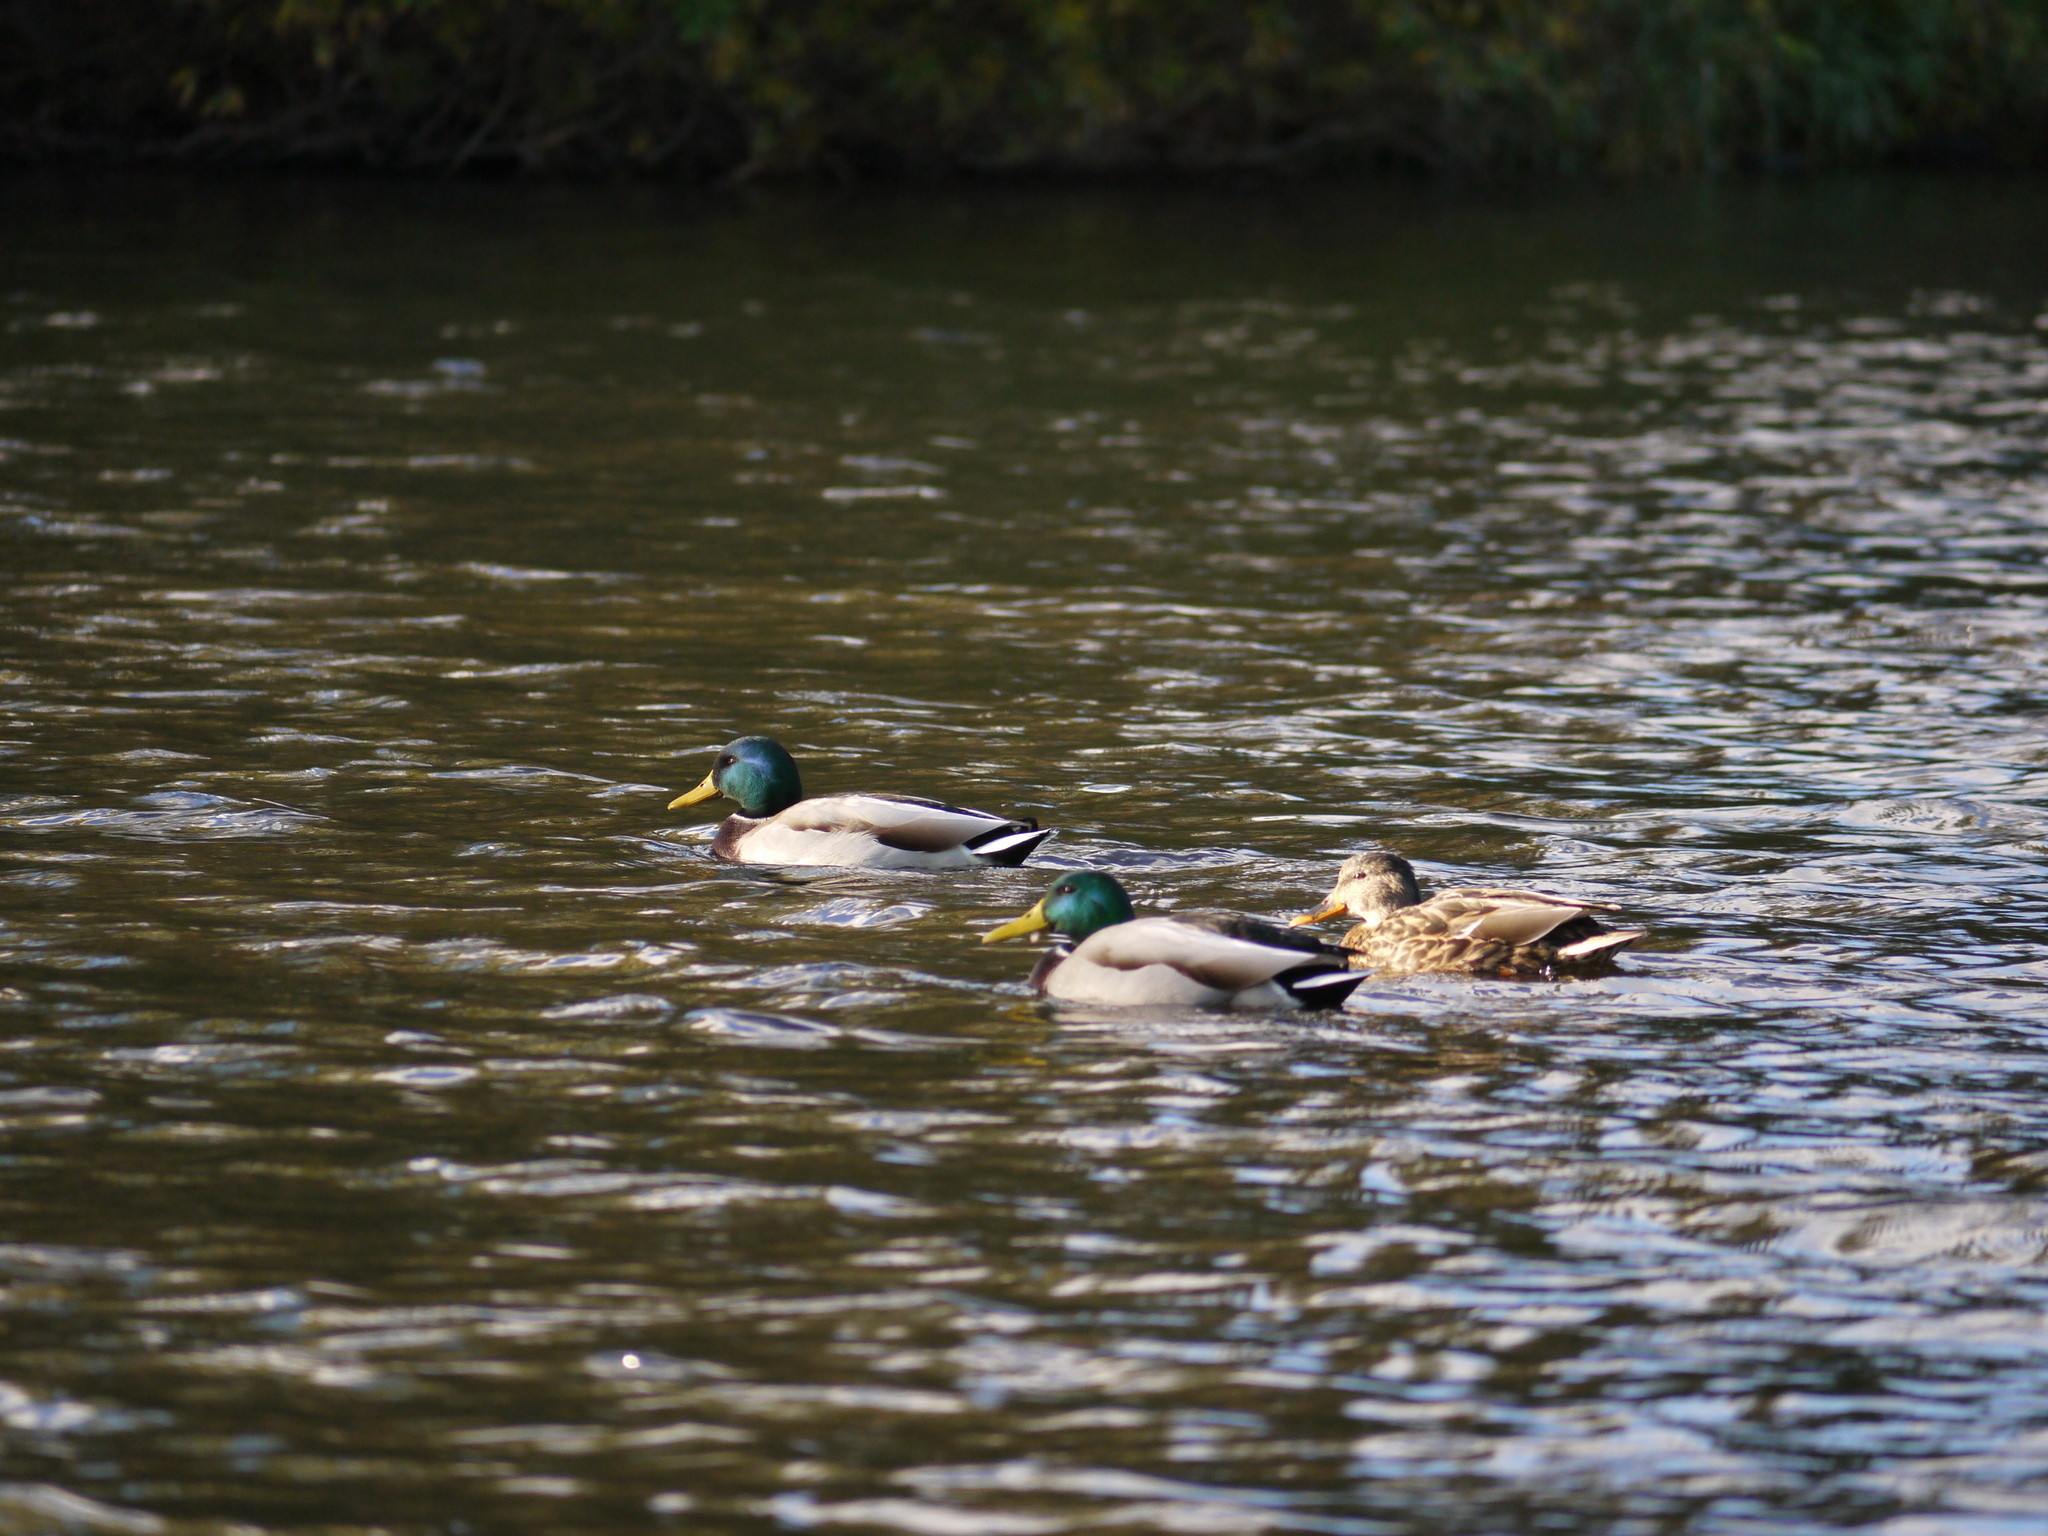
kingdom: Animalia
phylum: Chordata
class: Aves
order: Anseriformes
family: Anatidae
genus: Anas
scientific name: Anas platyrhynchos
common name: Mallard
